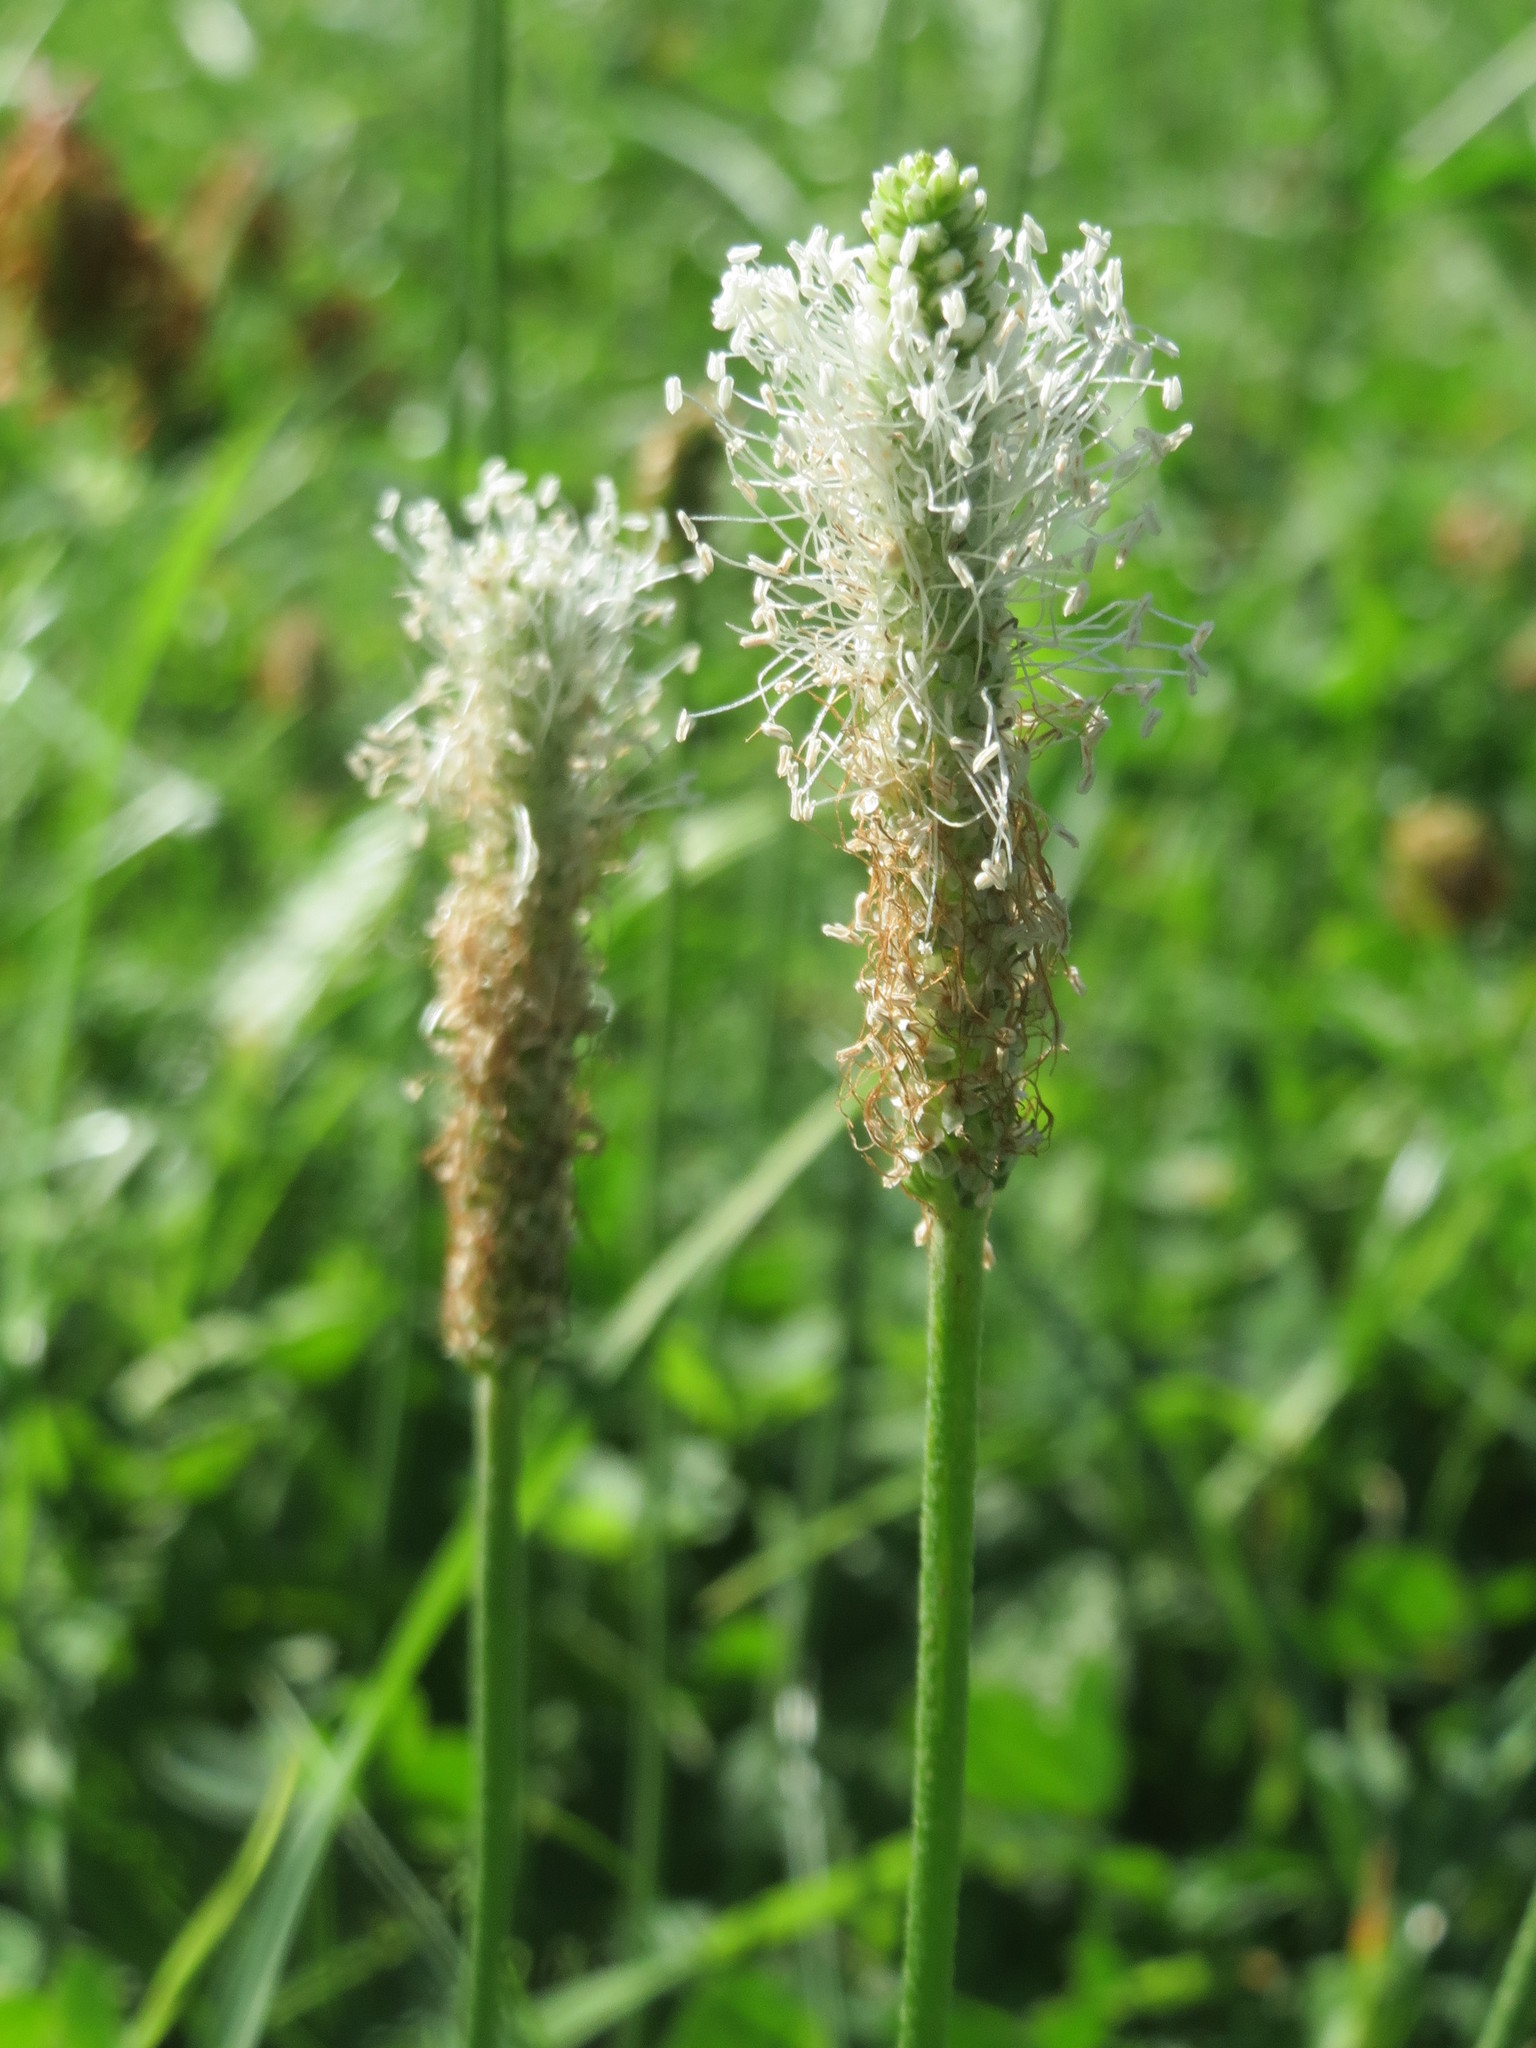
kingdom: Plantae
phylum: Tracheophyta
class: Magnoliopsida
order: Lamiales
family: Plantaginaceae
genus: Plantago
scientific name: Plantago lanceolata
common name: Ribwort plantain
